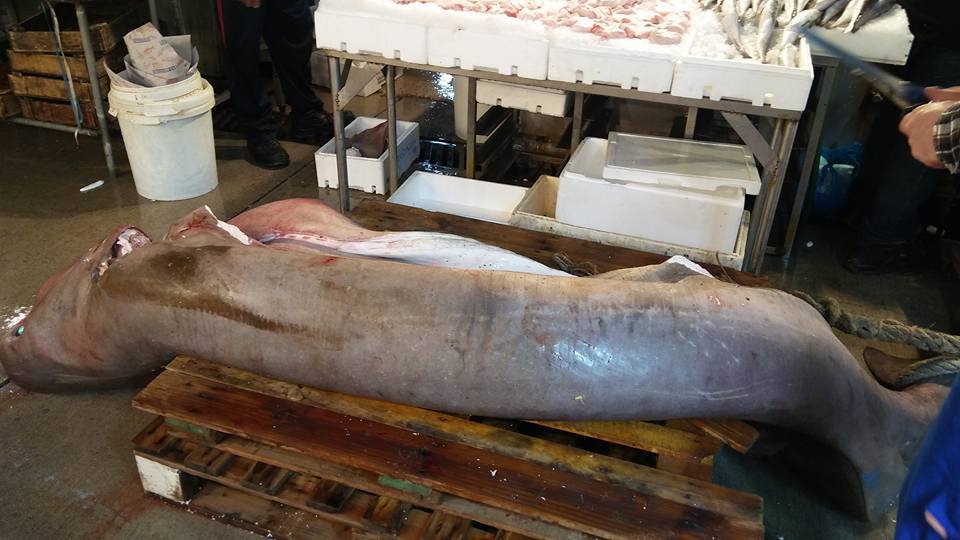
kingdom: Animalia
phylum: Chordata
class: Elasmobranchii
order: Hexanchiformes
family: Hexanchidae
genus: Hexanchus
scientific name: Hexanchus griseus
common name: Bluntnose sixgill shark
